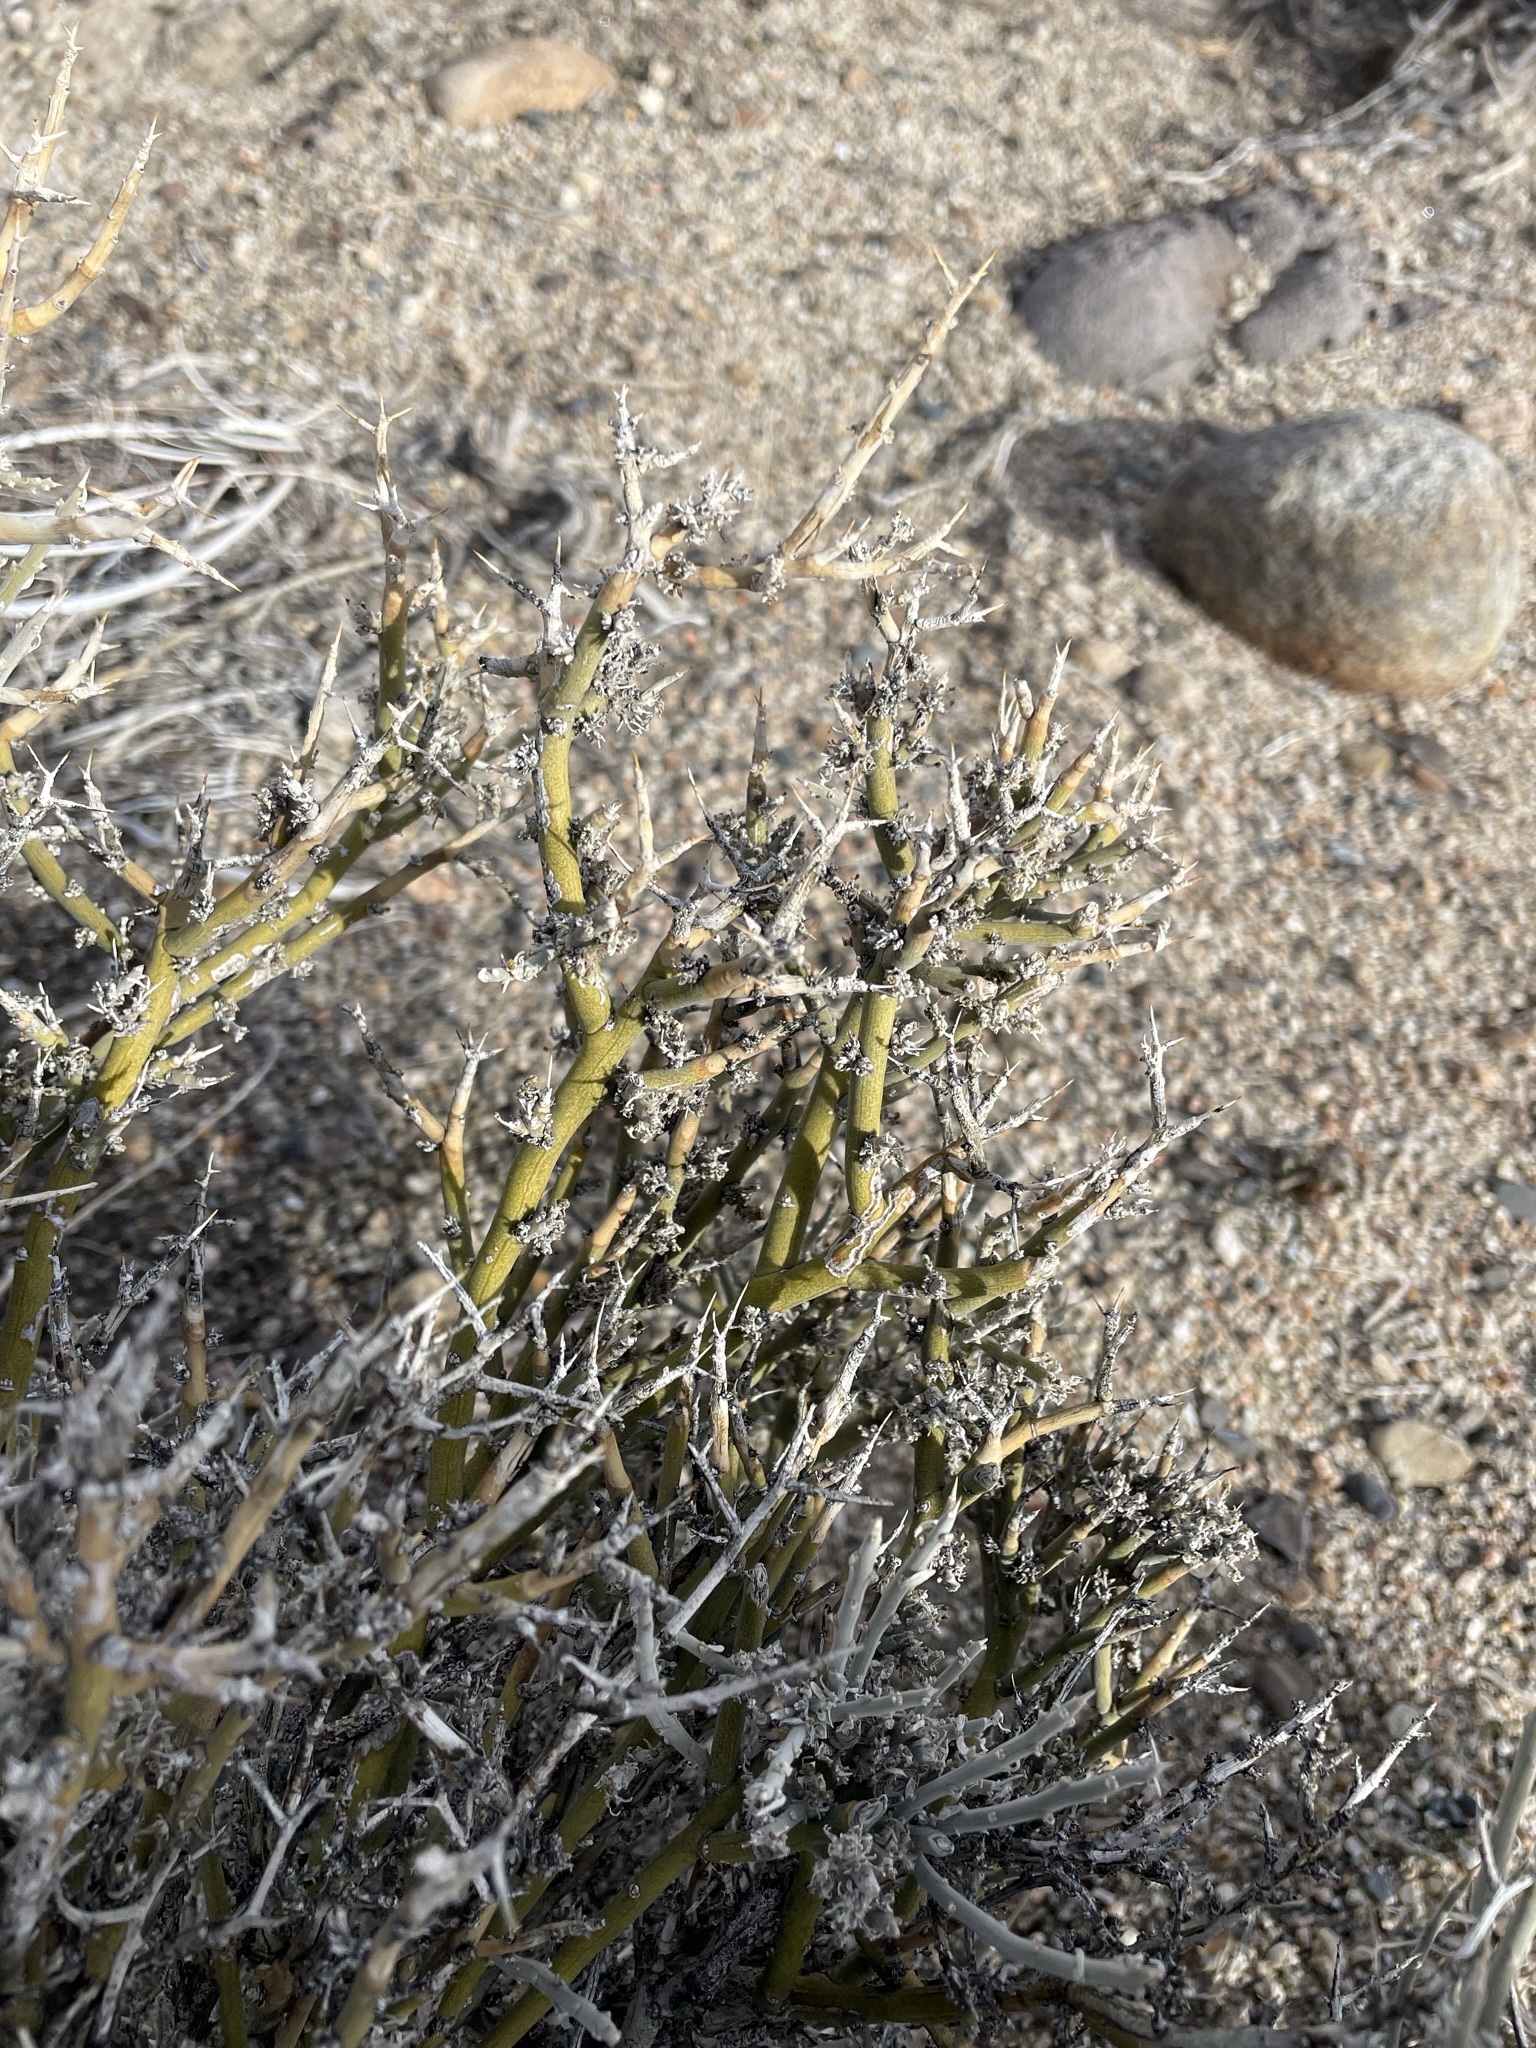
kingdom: Plantae
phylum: Tracheophyta
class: Magnoliopsida
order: Lamiales
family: Oleaceae
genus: Menodora
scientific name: Menodora spinescens
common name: Spiny menodora
